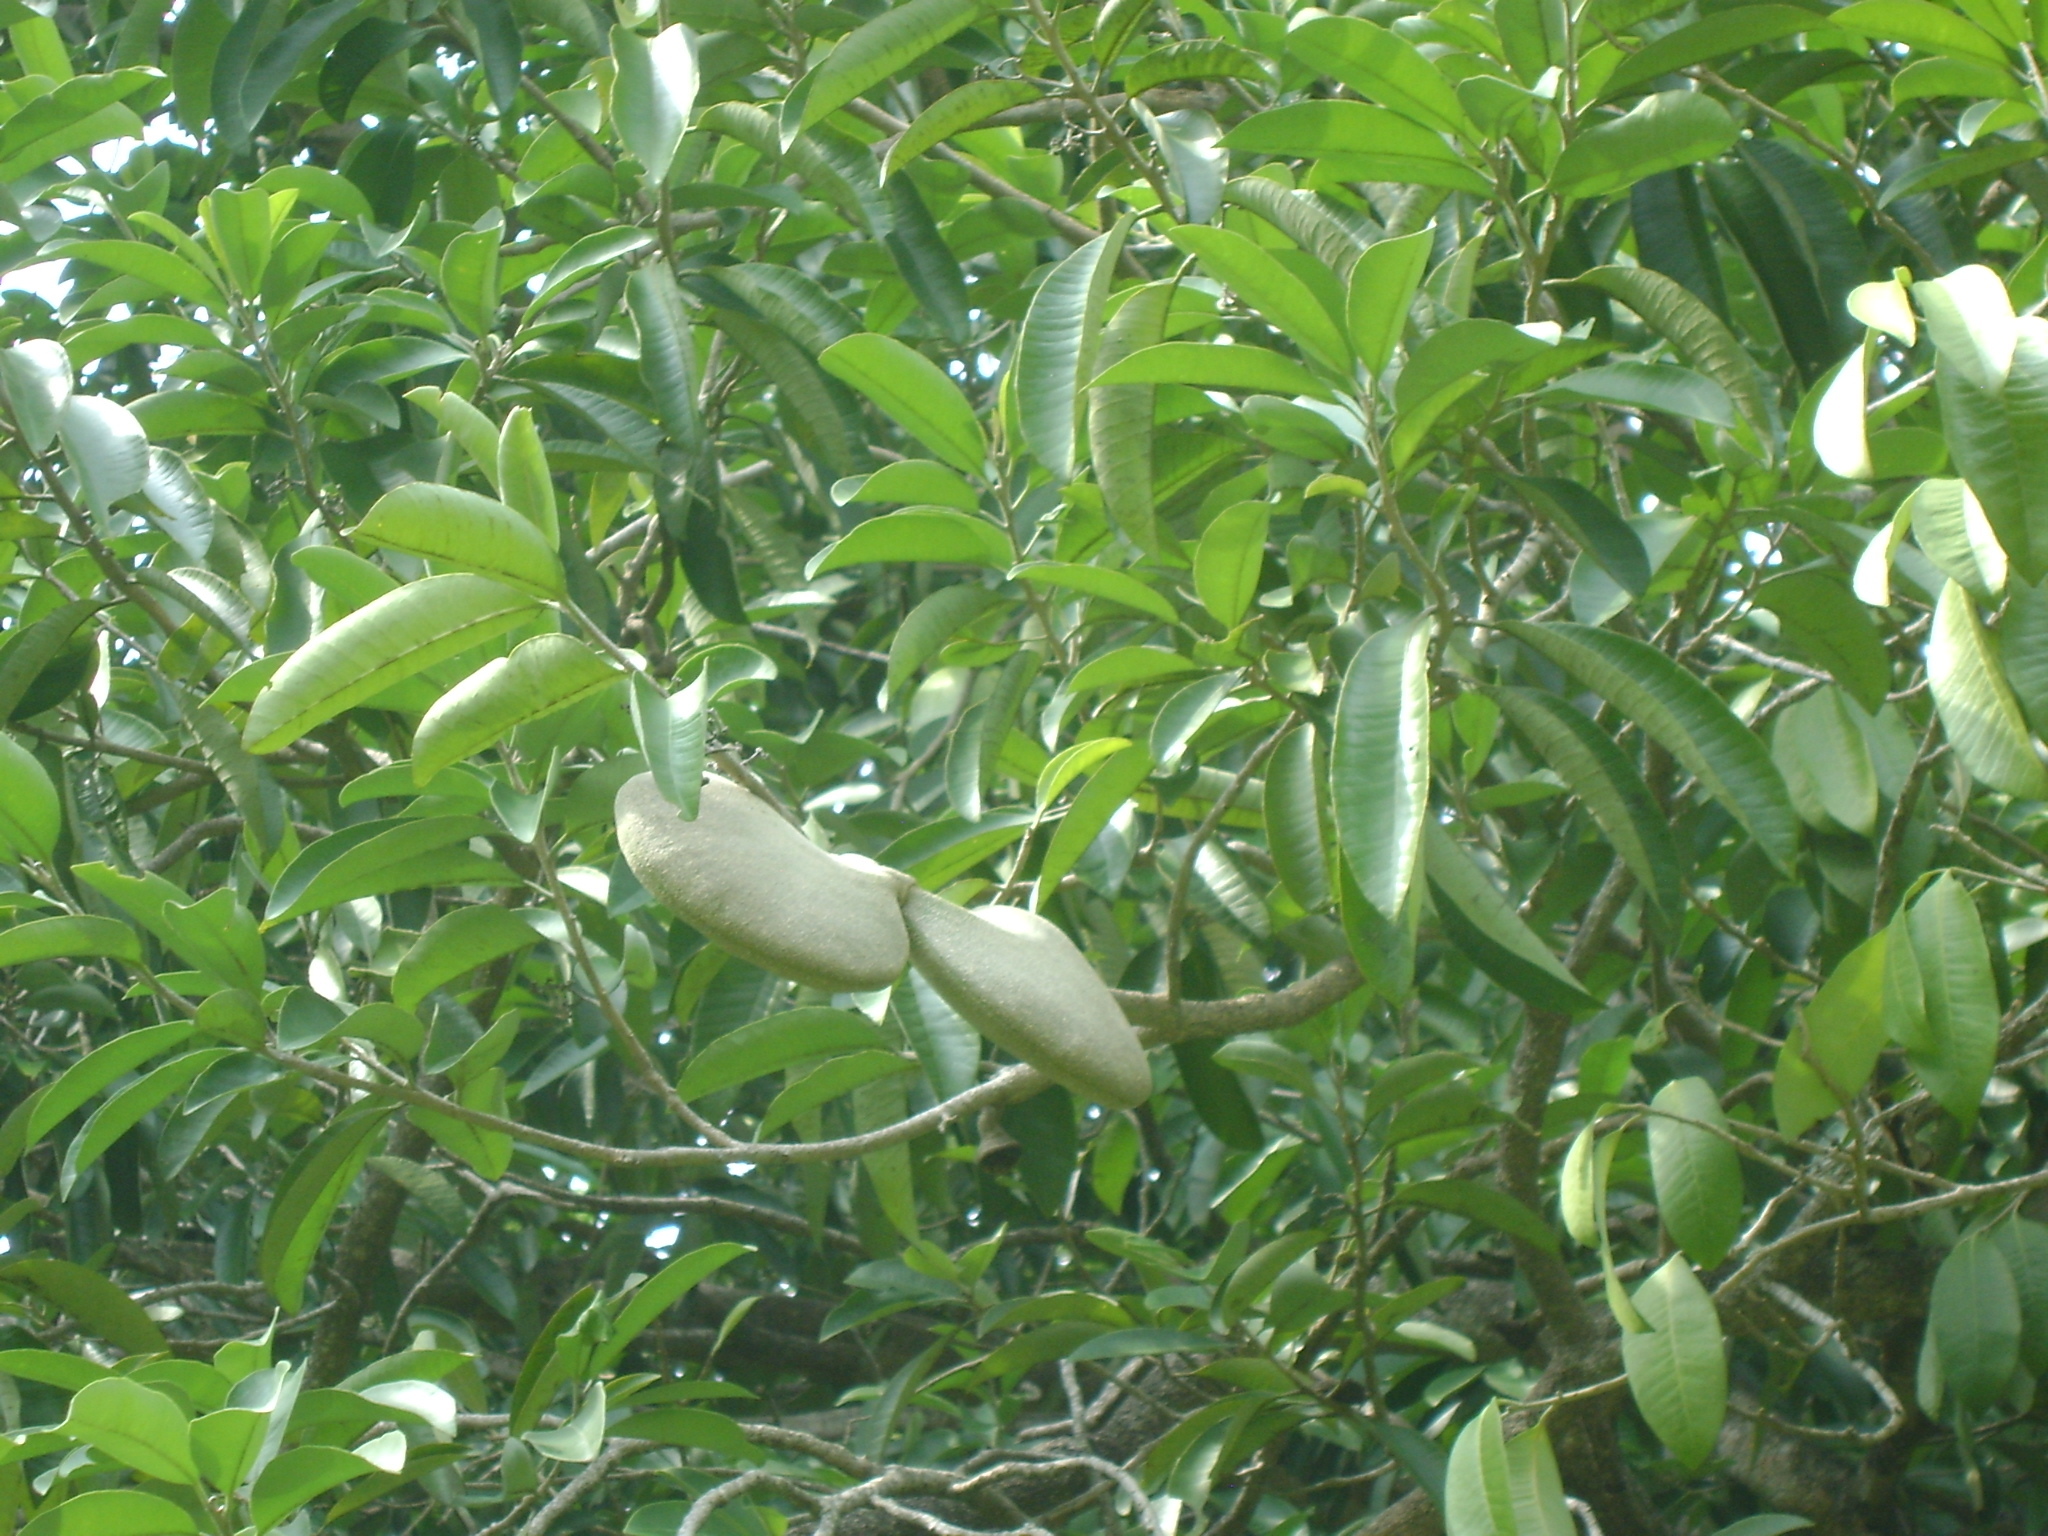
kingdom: Plantae
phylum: Tracheophyta
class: Magnoliopsida
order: Gentianales
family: Apocynaceae
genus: Aspidosperma
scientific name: Aspidosperma megalocarpon
